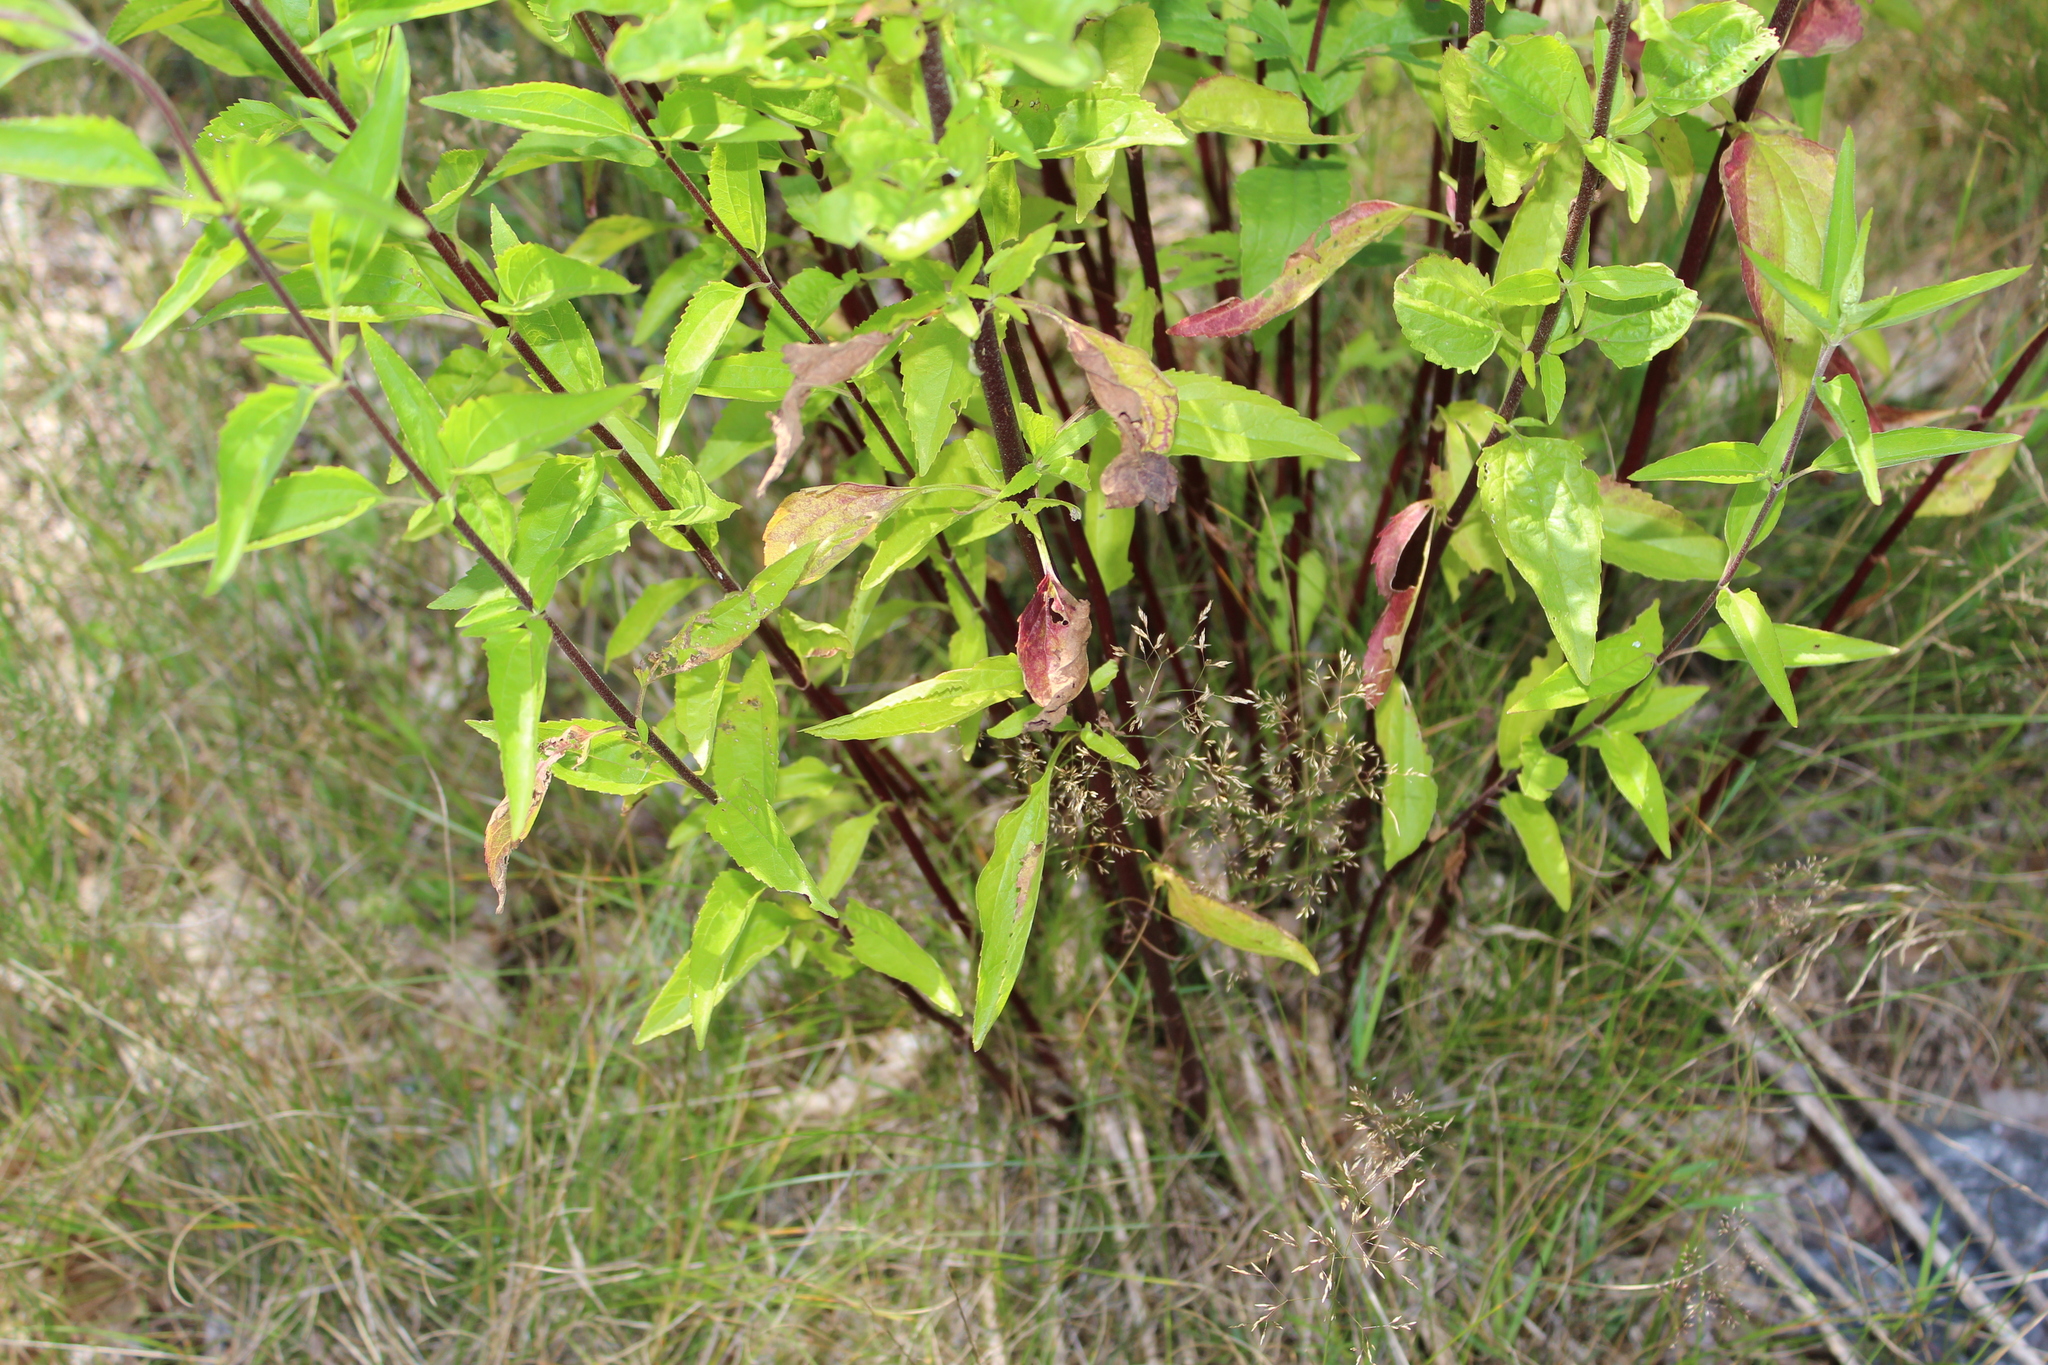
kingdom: Plantae
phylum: Tracheophyta
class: Magnoliopsida
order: Asterales
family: Asteraceae
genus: Eupatorium
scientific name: Eupatorium serotinum
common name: Late boneset
